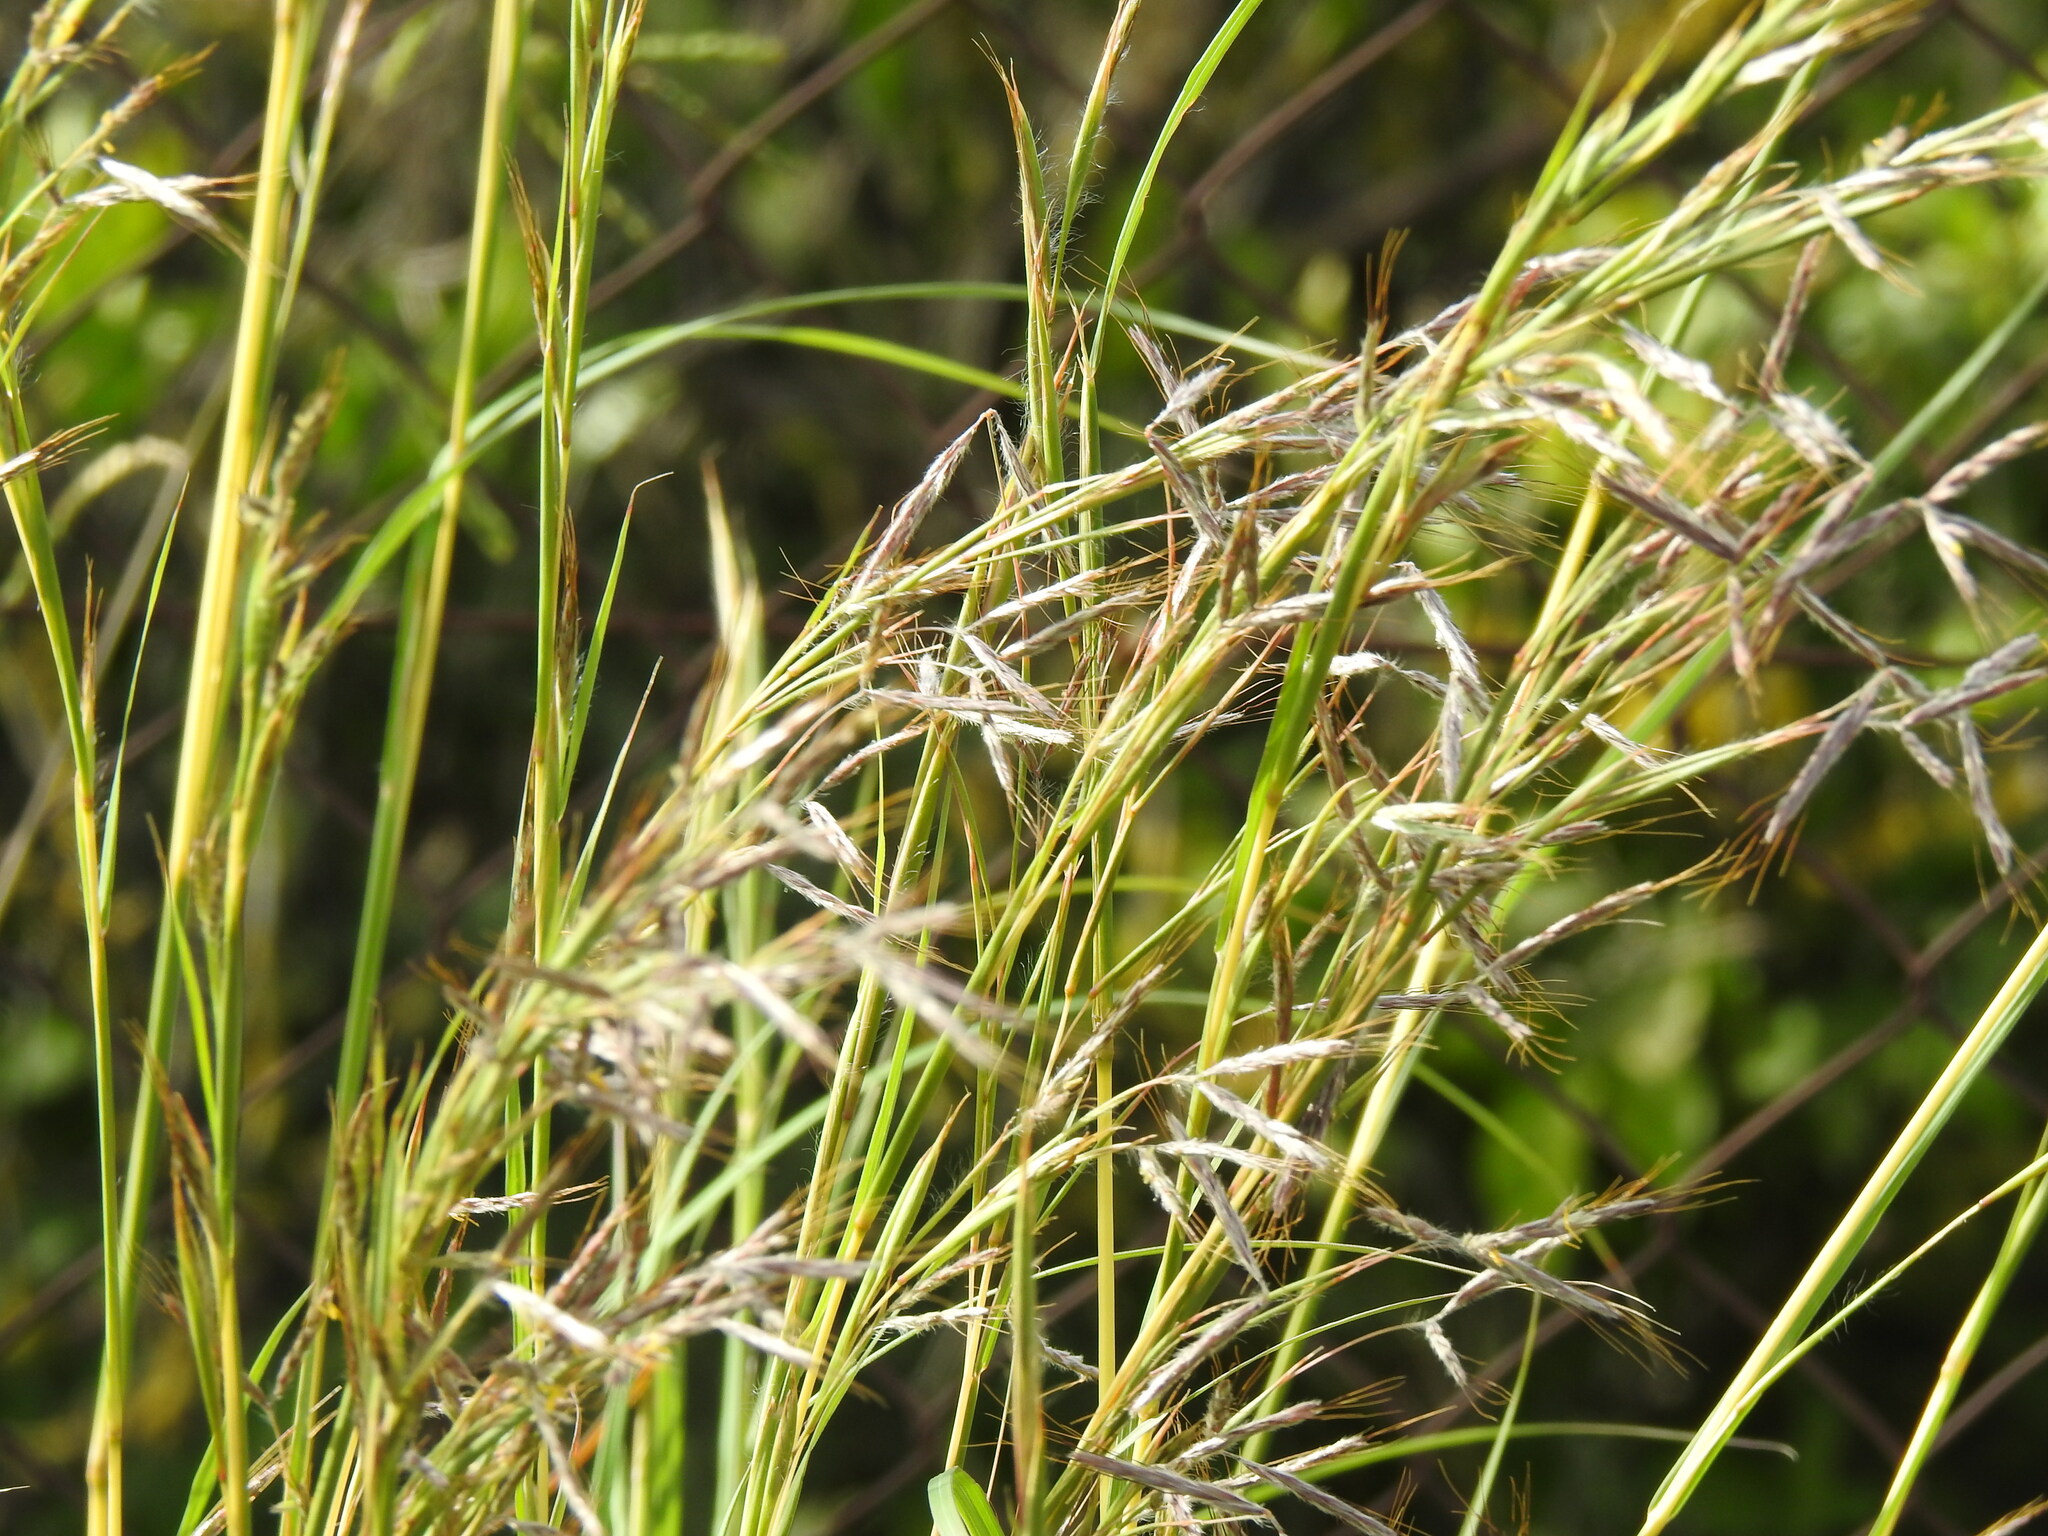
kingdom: Plantae
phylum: Tracheophyta
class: Liliopsida
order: Poales
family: Poaceae
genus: Hyparrhenia
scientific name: Hyparrhenia hirta
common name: Thatching grass
